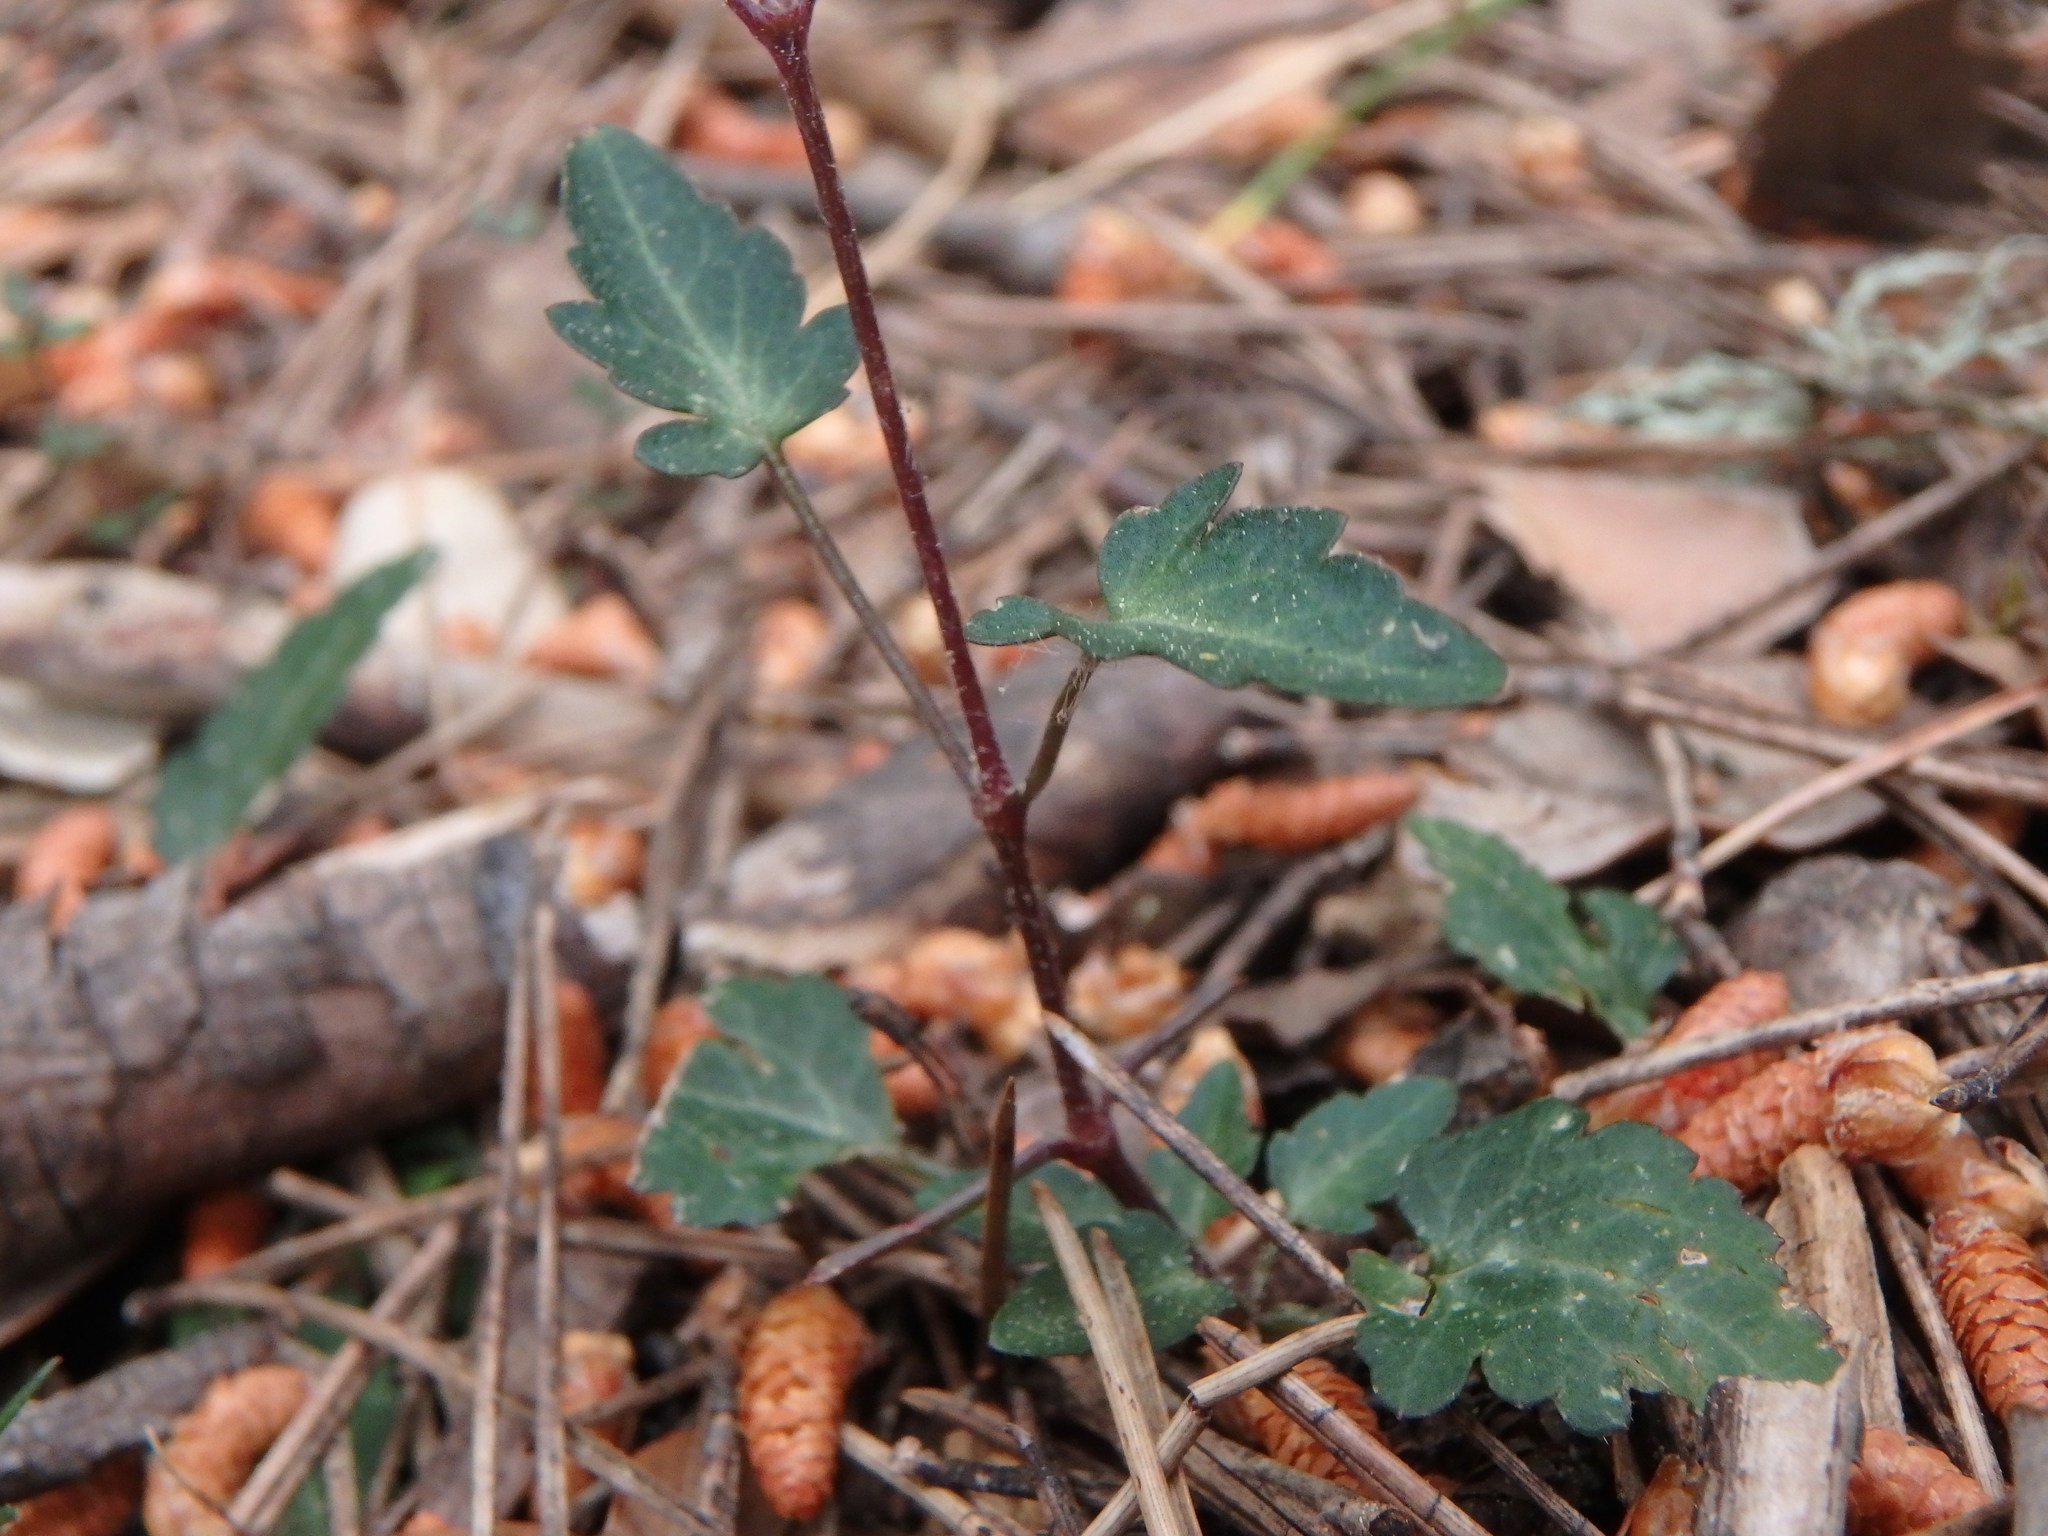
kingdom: Plantae
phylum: Tracheophyta
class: Magnoliopsida
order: Ranunculales
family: Ranunculaceae
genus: Clematis
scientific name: Clematis cirrhosa
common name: Early virgin's-bower
